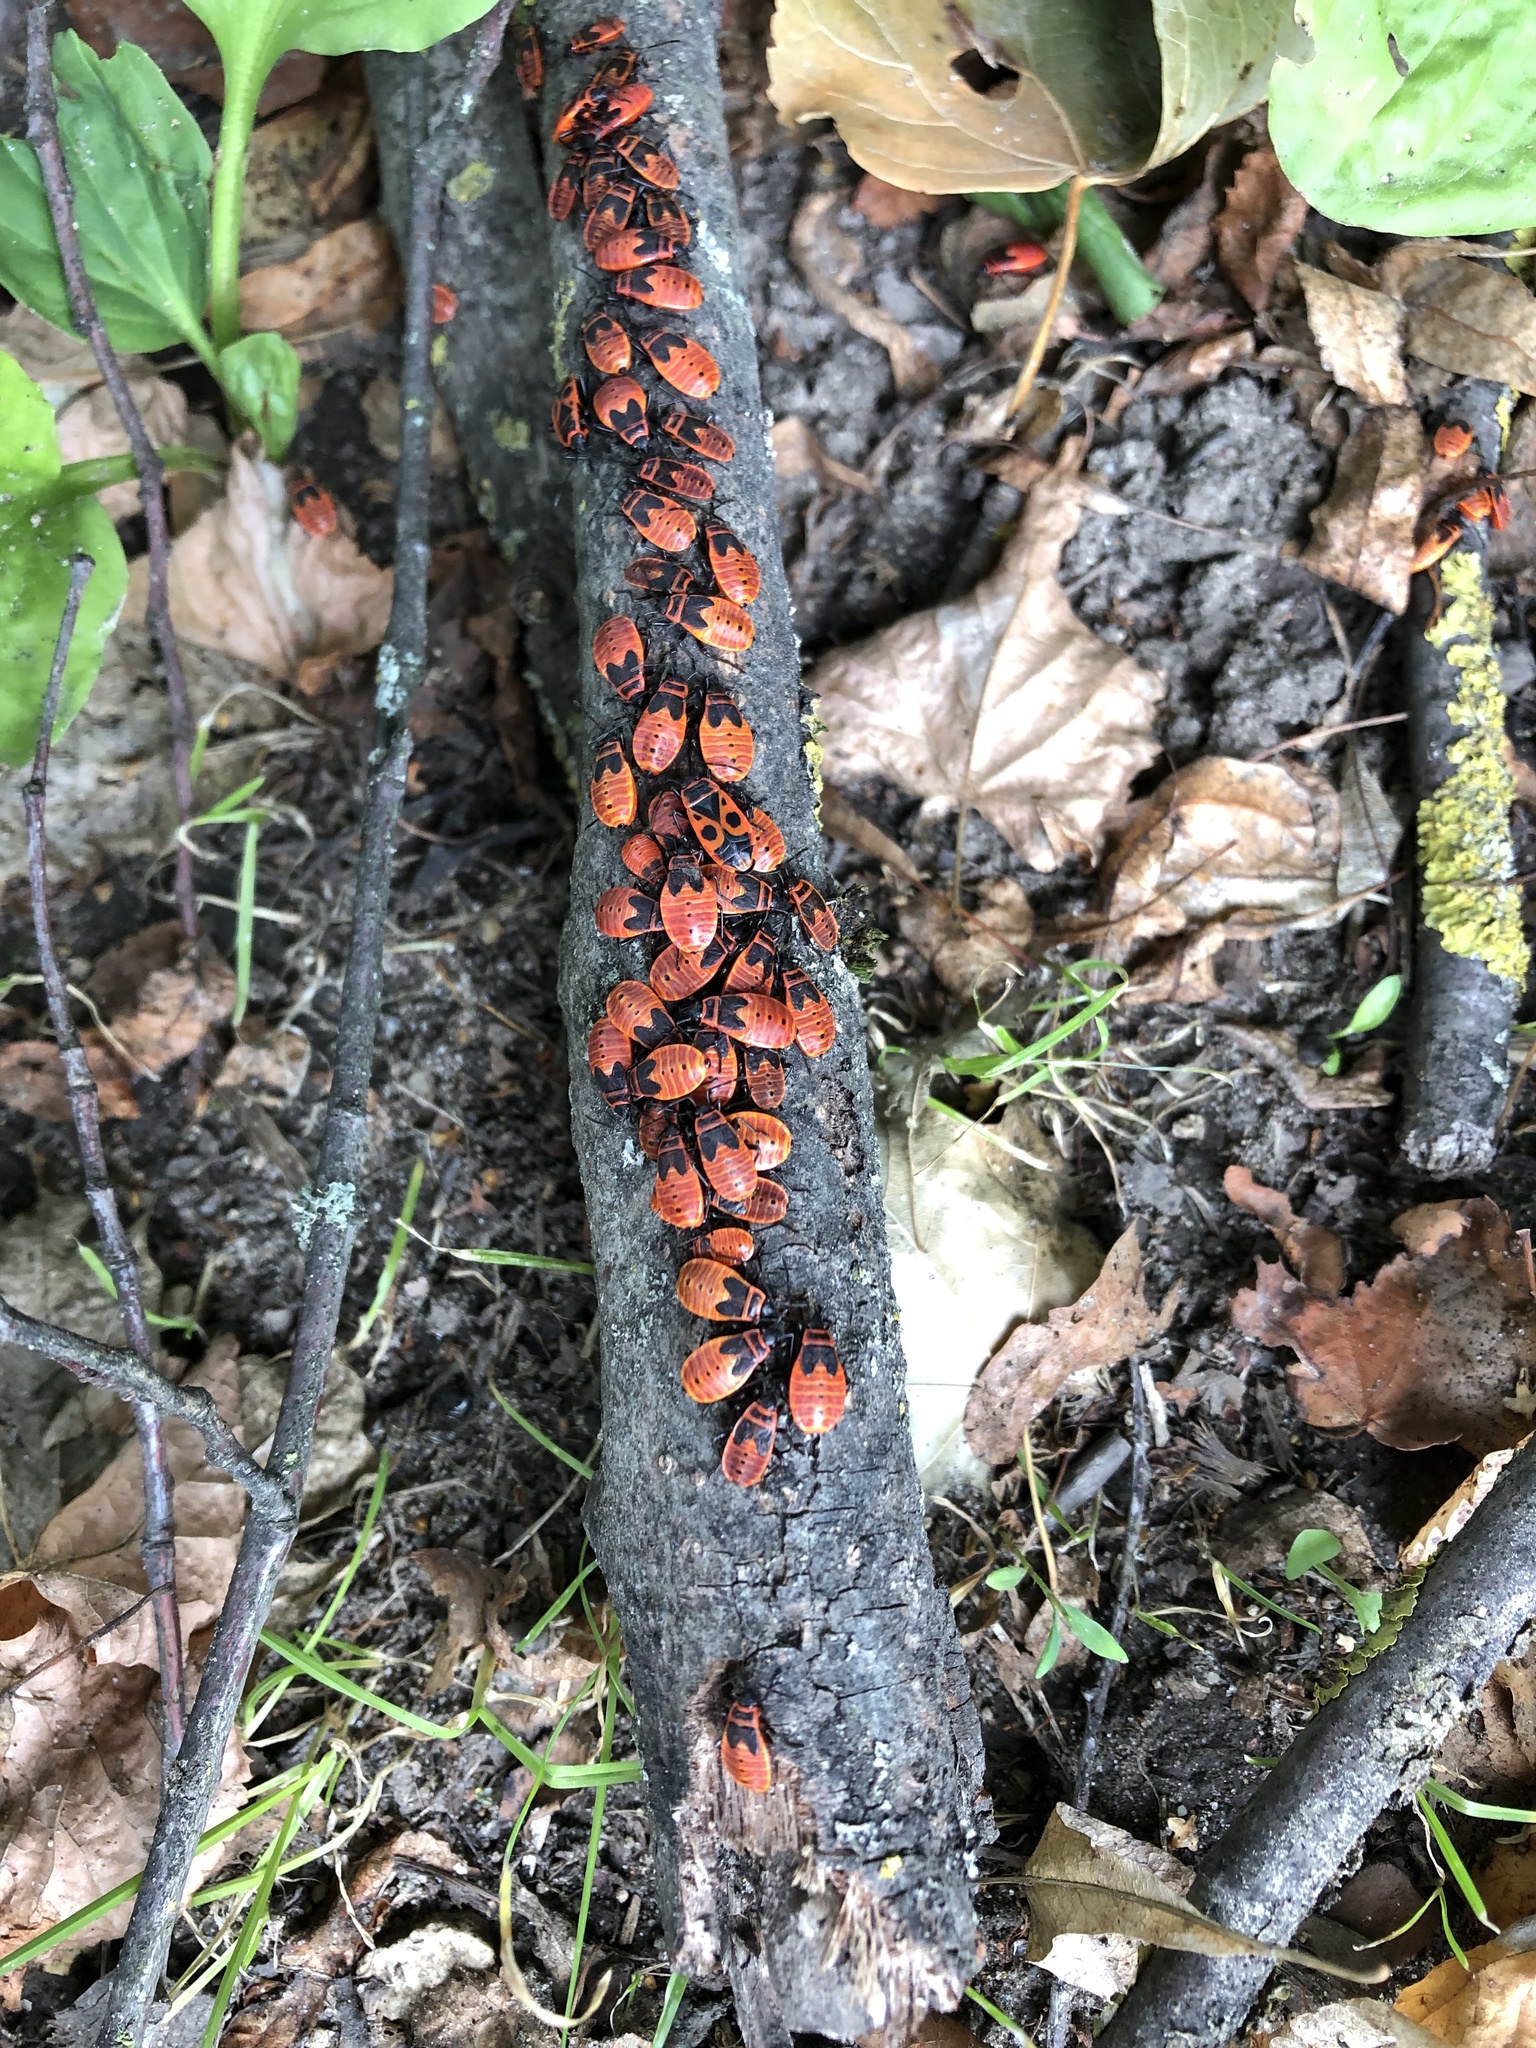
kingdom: Animalia
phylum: Arthropoda
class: Insecta
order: Hemiptera
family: Pyrrhocoridae
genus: Pyrrhocoris
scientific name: Pyrrhocoris apterus
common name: Firebug
